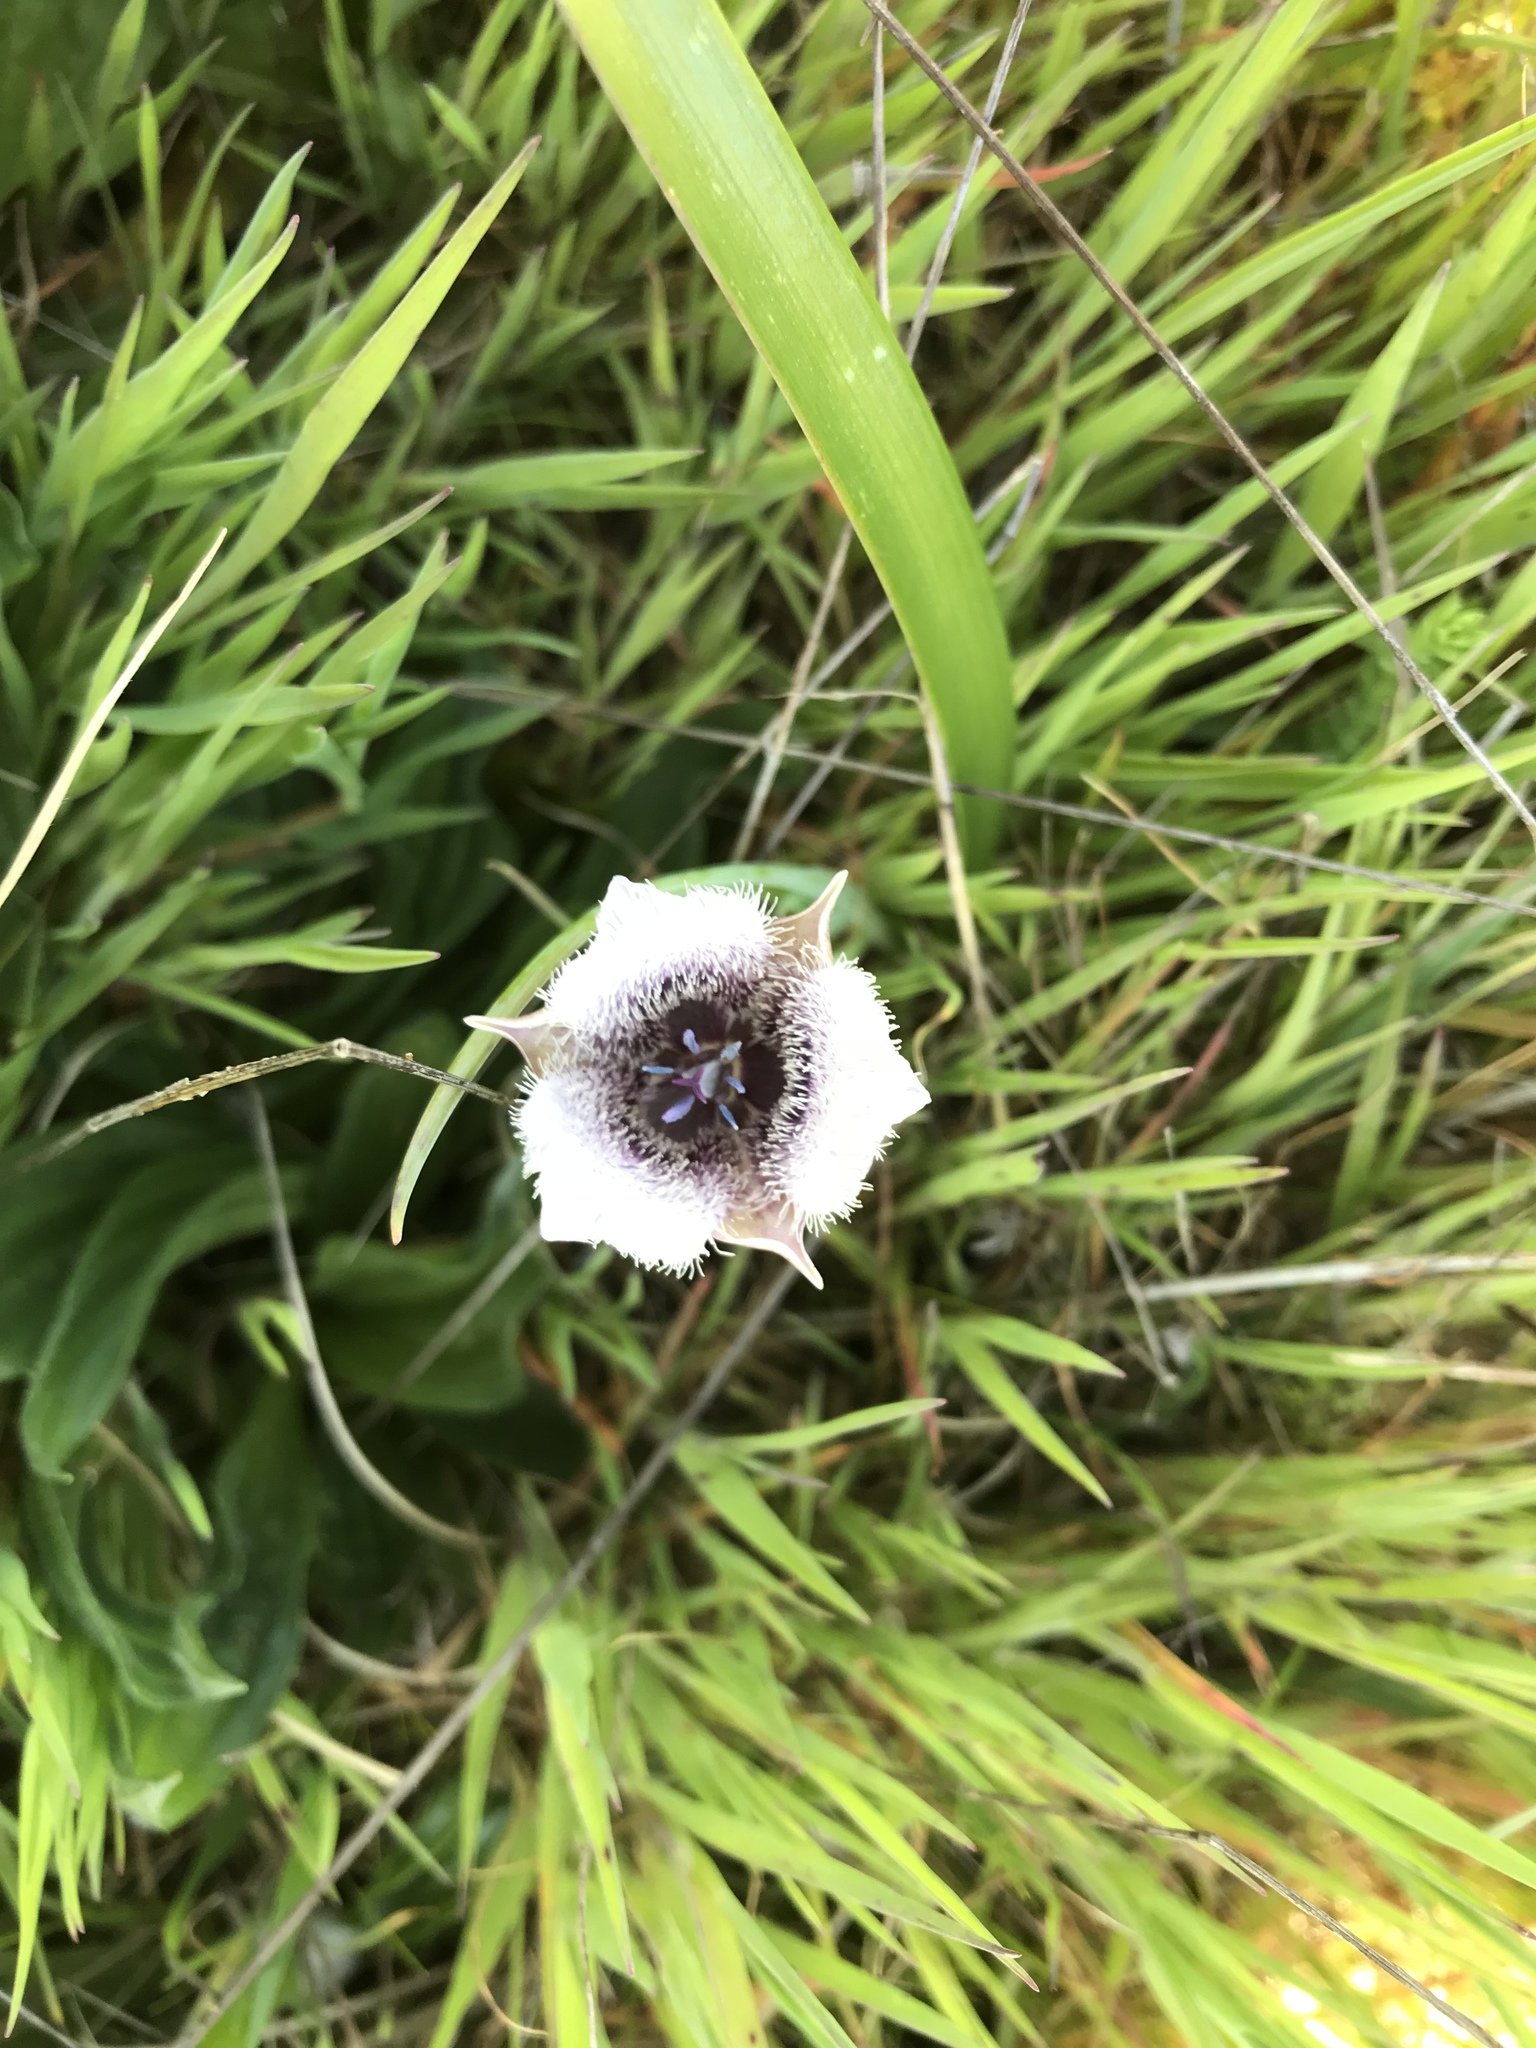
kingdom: Plantae
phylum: Tracheophyta
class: Liliopsida
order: Liliales
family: Liliaceae
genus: Calochortus
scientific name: Calochortus tolmiei
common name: Pussy-ears
